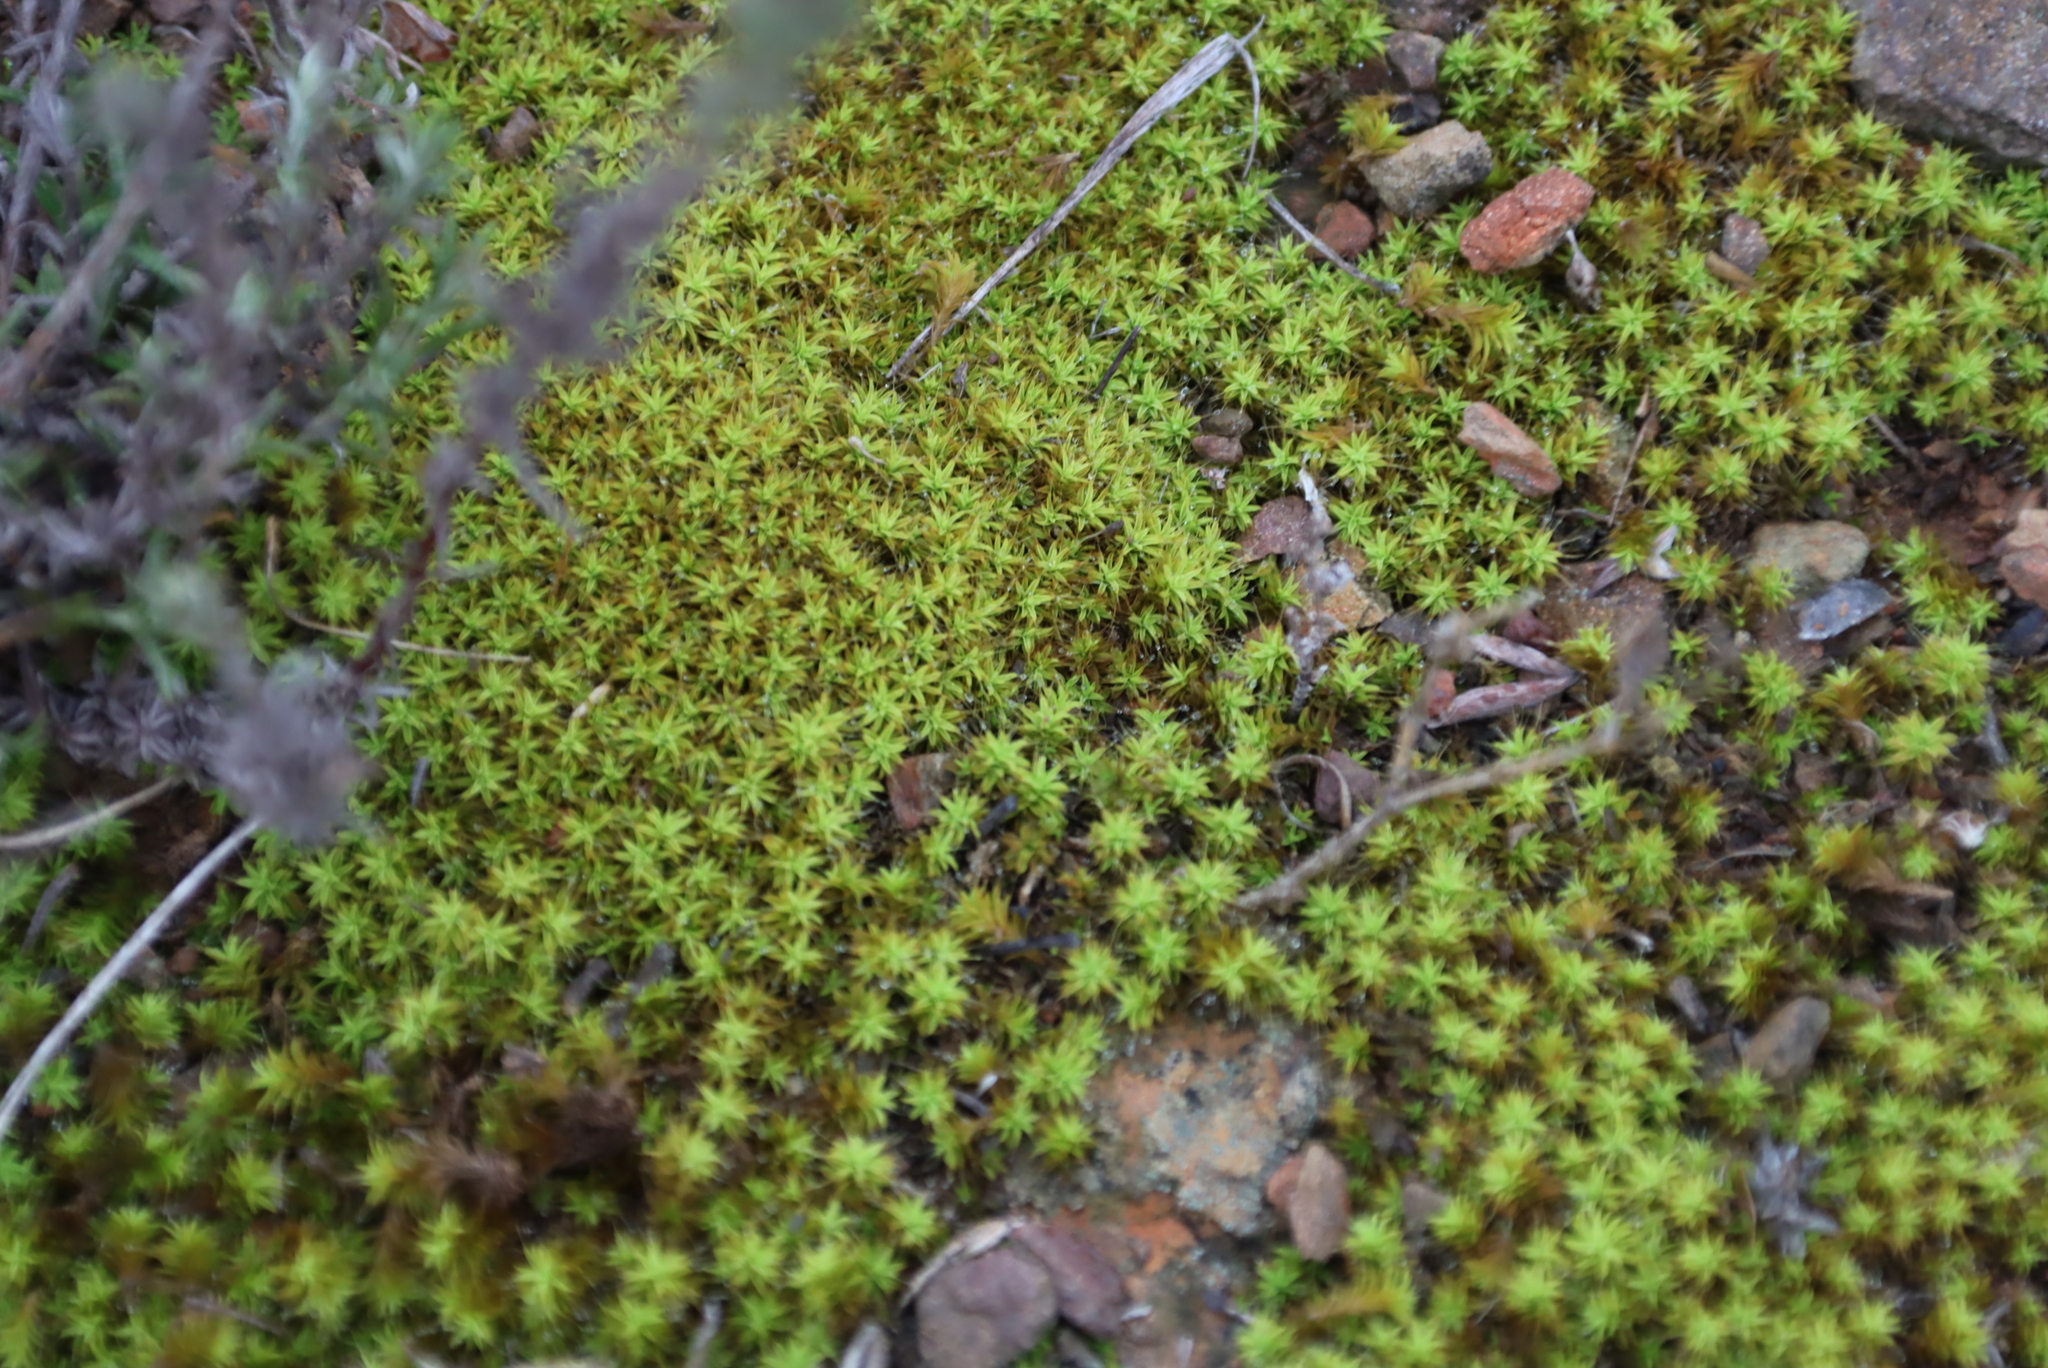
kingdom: Plantae
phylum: Bryophyta
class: Bryopsida
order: Pottiales
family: Pottiaceae
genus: Pseudocrossidium
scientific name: Pseudocrossidium crinitum
